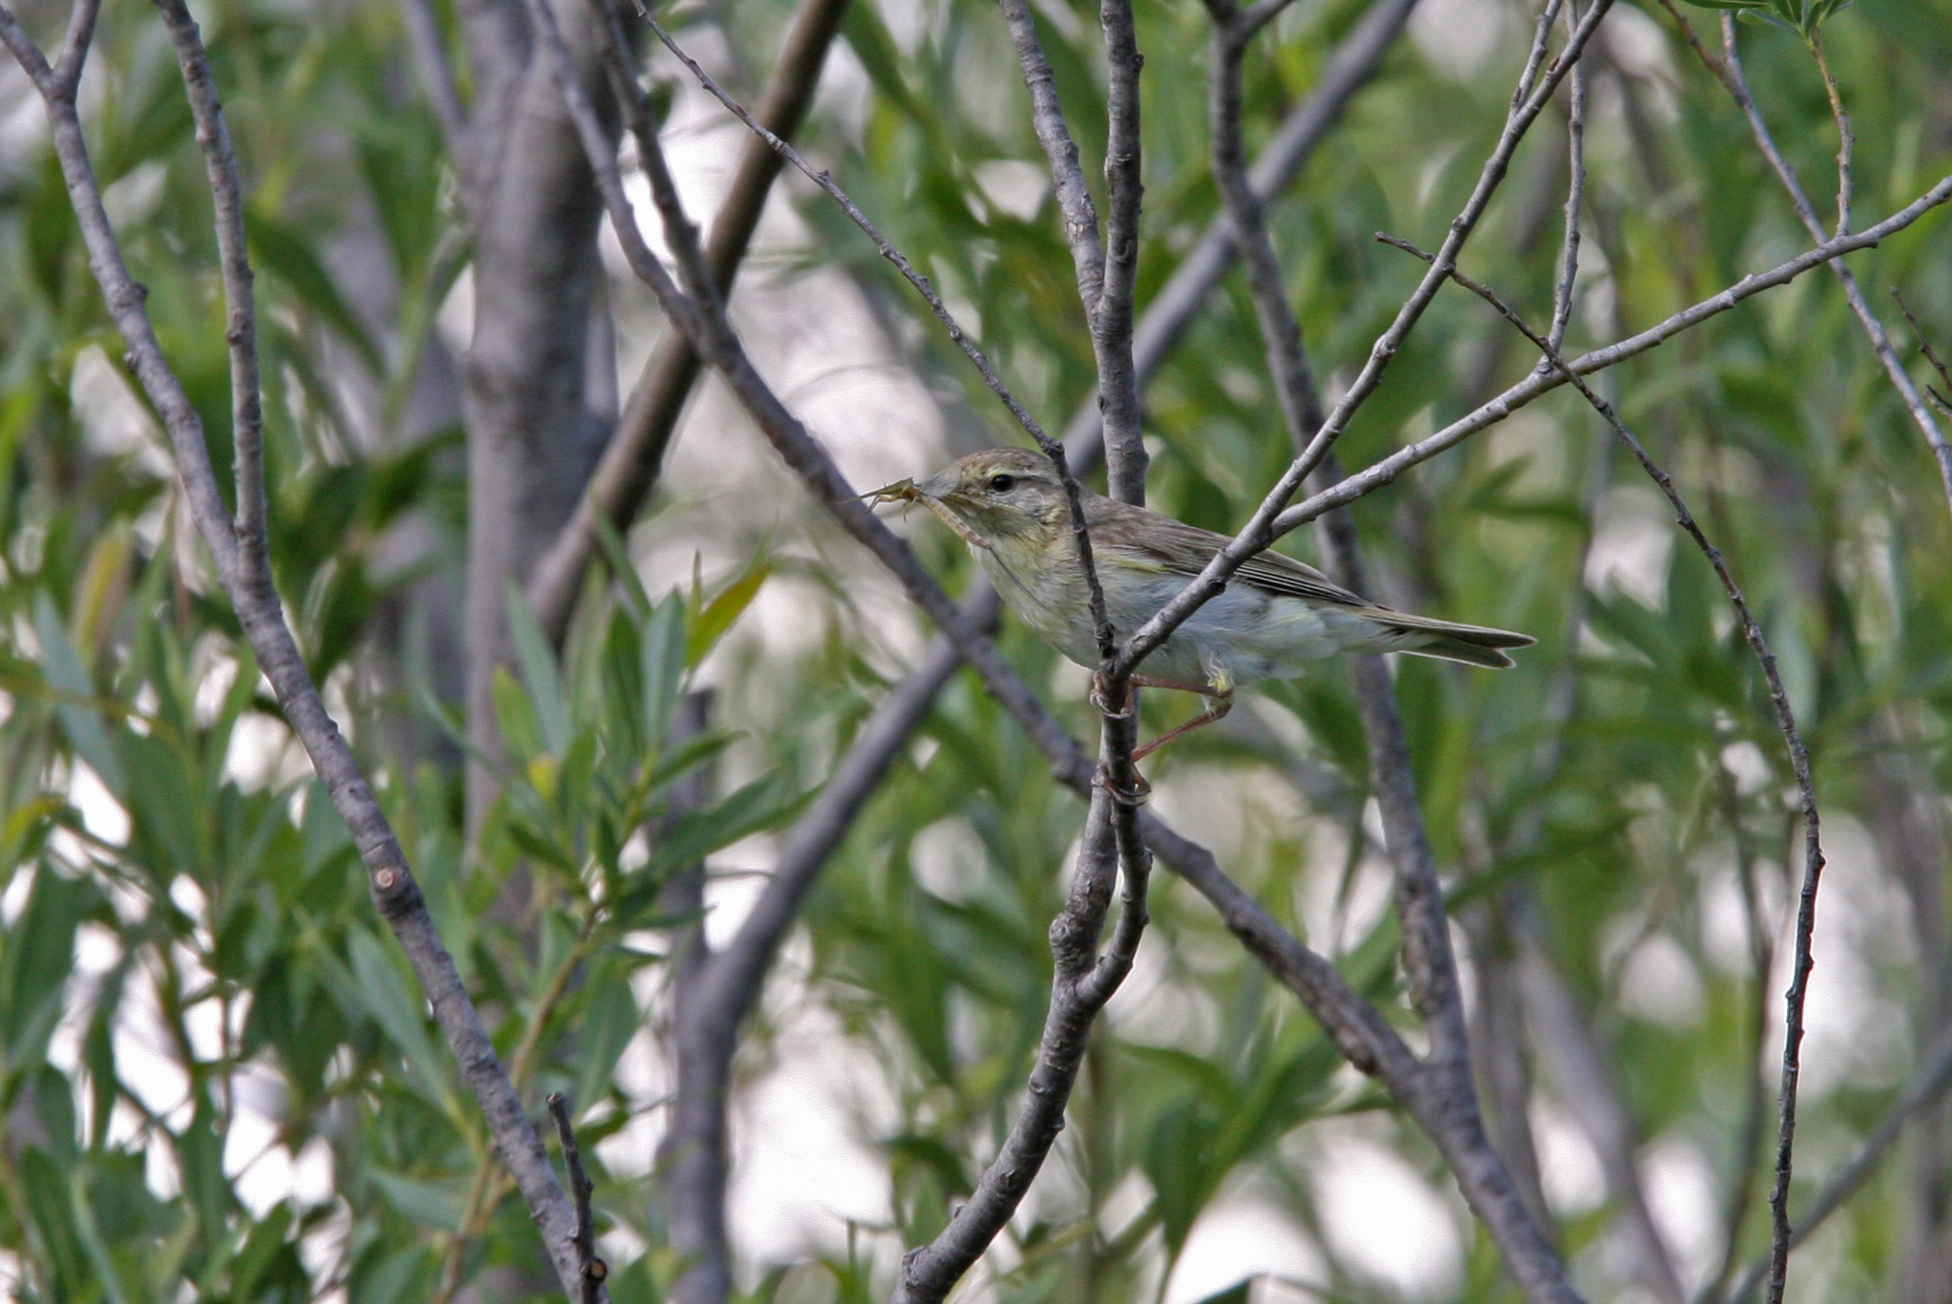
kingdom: Animalia
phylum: Chordata
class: Aves
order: Passeriformes
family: Phylloscopidae
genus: Phylloscopus
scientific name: Phylloscopus trochilus
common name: Willow warbler
